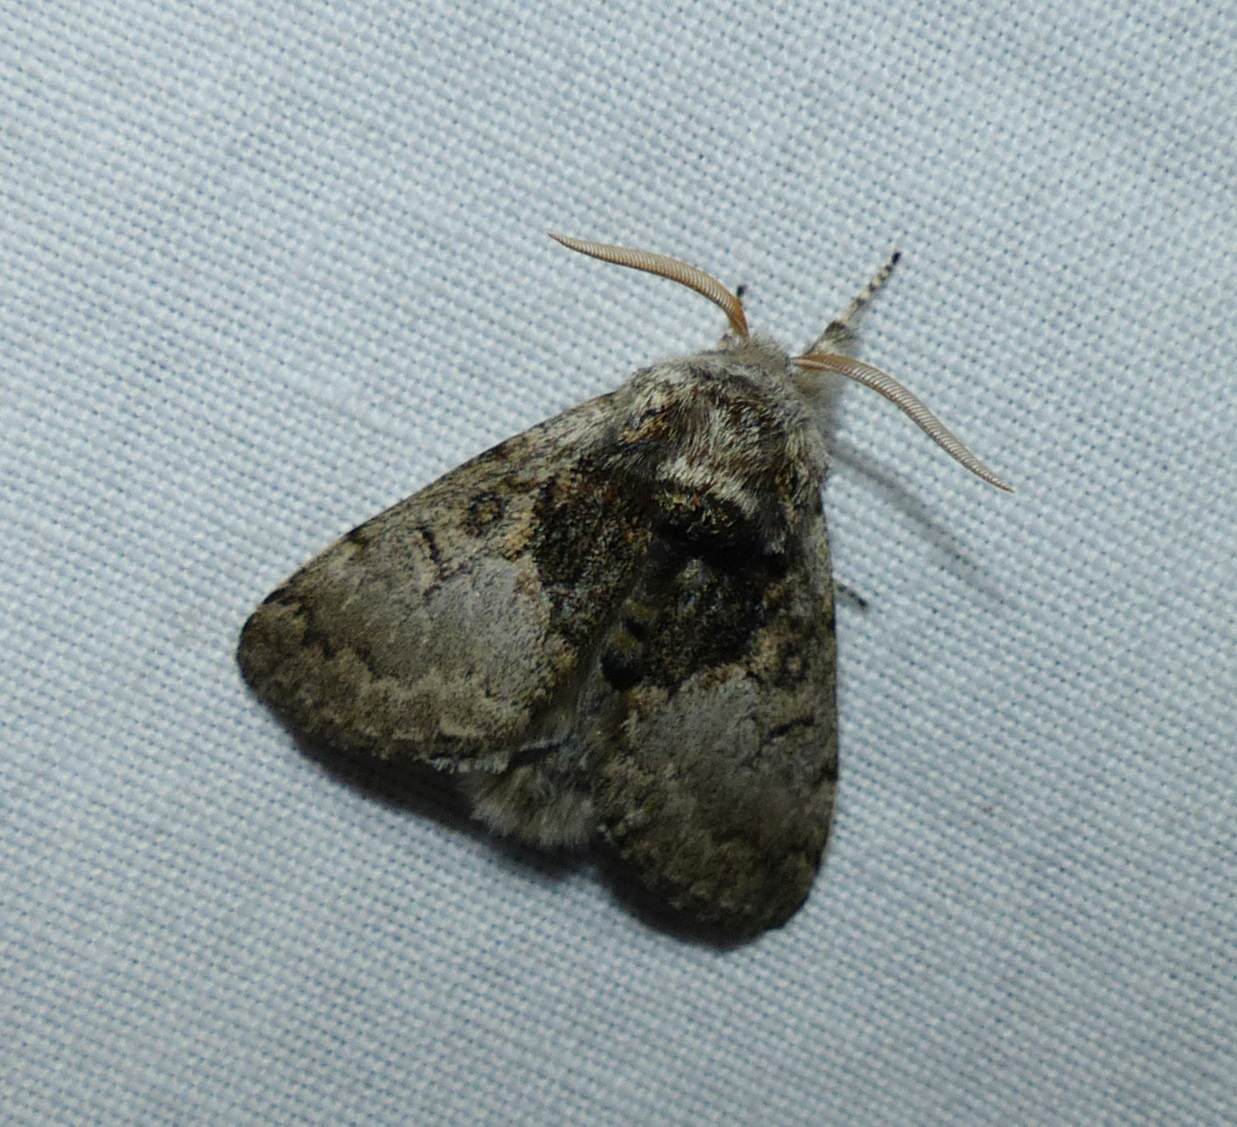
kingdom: Animalia
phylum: Arthropoda
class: Insecta
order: Lepidoptera
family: Noctuidae
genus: Colocasia
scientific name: Colocasia flavicornis
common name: Saddled yellowhorn
